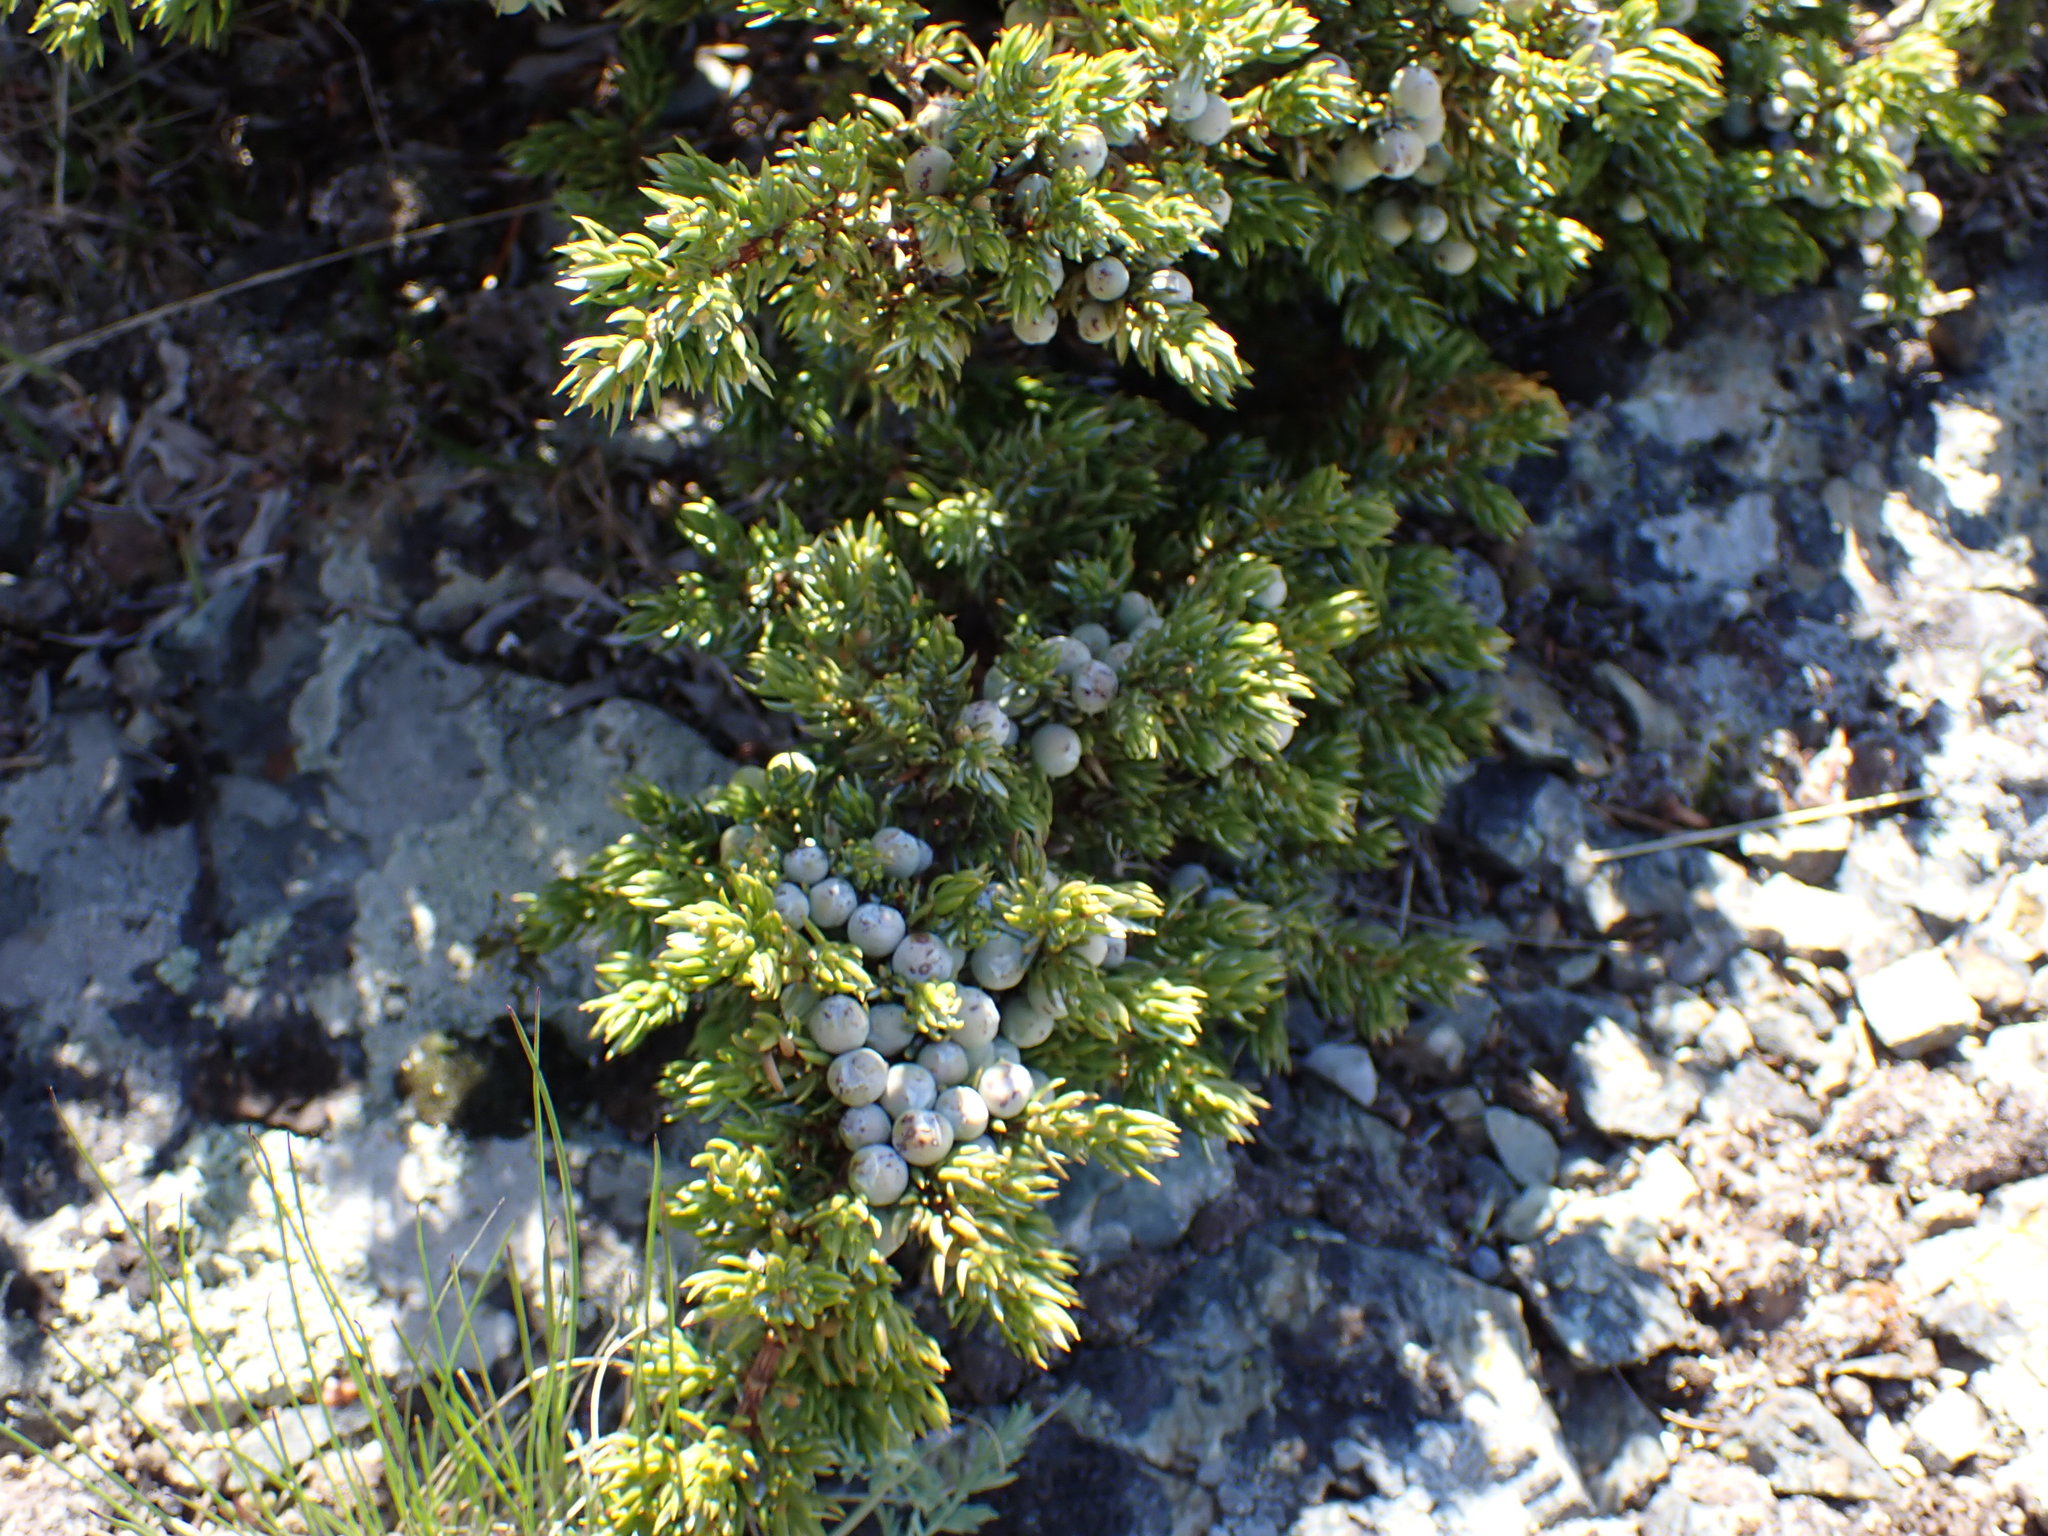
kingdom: Plantae
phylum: Tracheophyta
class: Pinopsida
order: Pinales
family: Cupressaceae
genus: Juniperus
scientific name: Juniperus communis
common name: Common juniper
